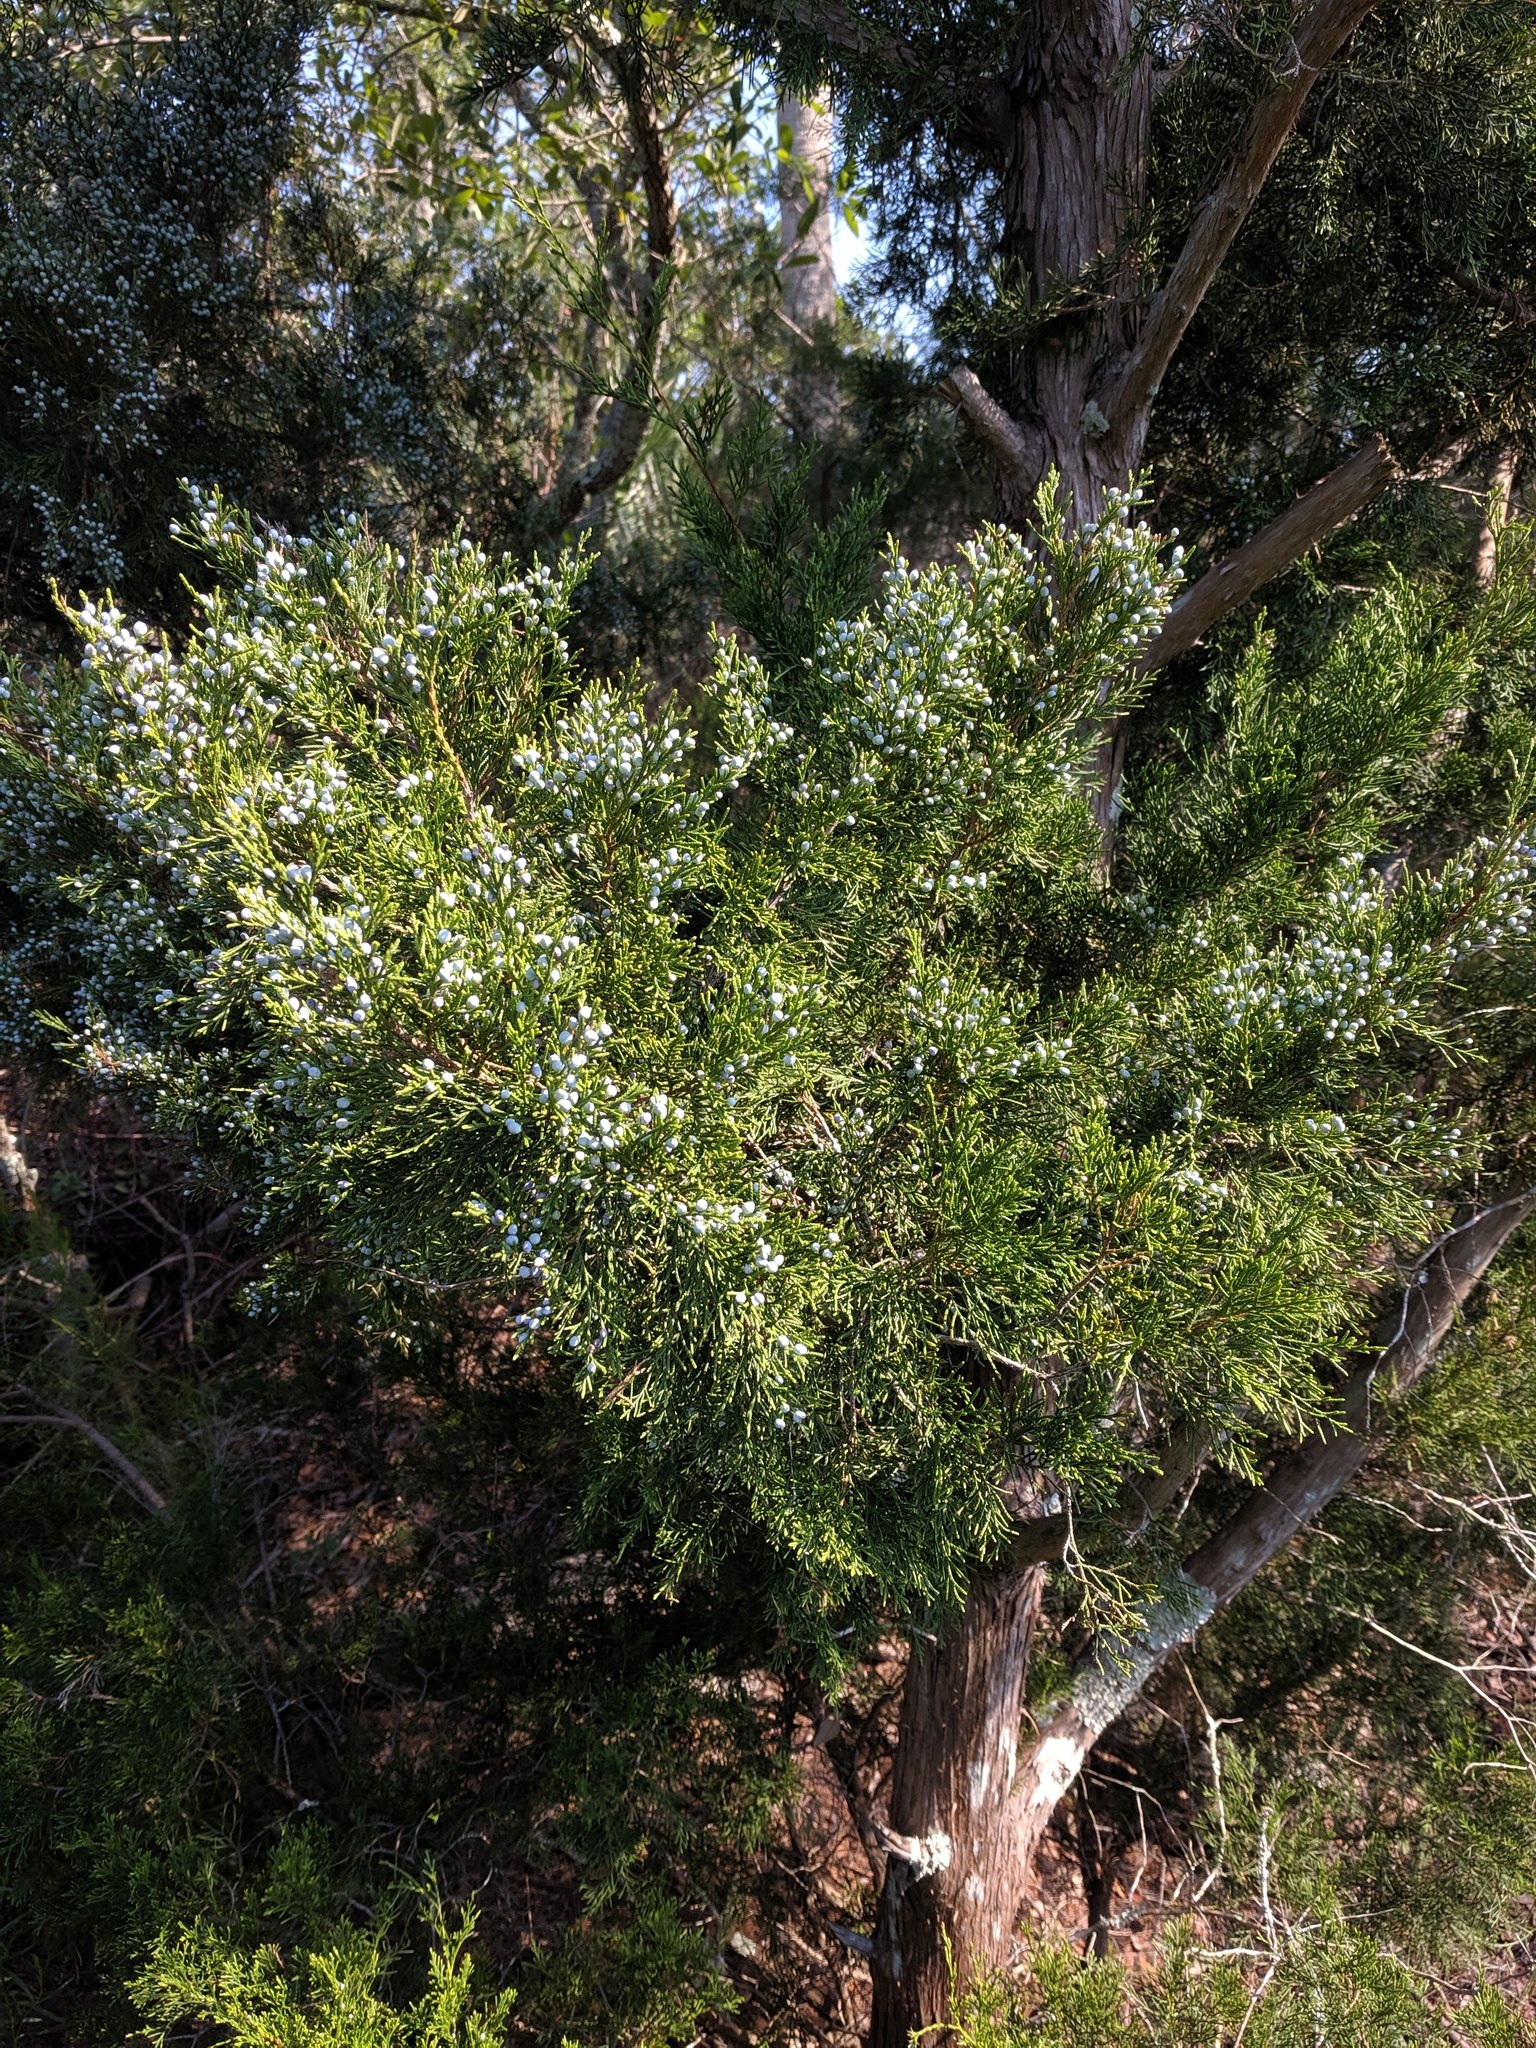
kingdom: Plantae
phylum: Tracheophyta
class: Pinopsida
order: Pinales
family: Cupressaceae
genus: Juniperus
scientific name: Juniperus virginiana
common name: Red juniper
